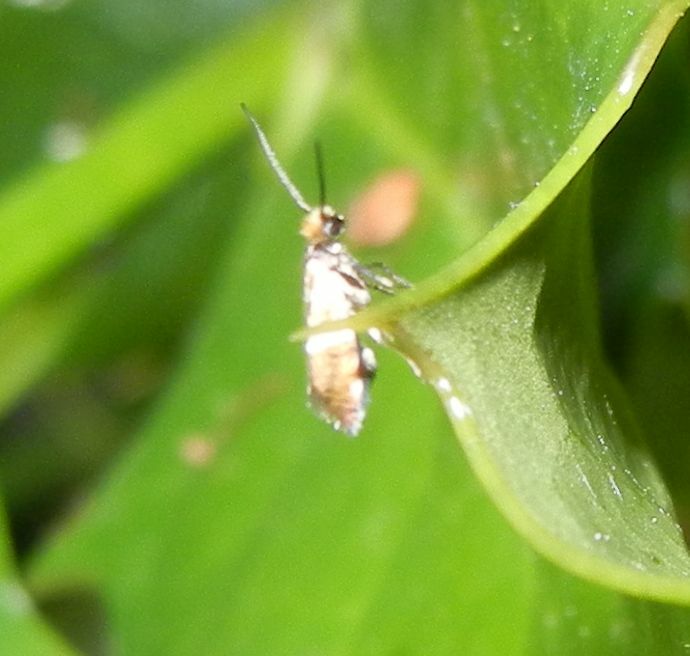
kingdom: Animalia
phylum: Arthropoda
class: Insecta
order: Lepidoptera
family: Micropterigidae
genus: Micropterix
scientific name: Micropterix aruncella
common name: White-barred gold
